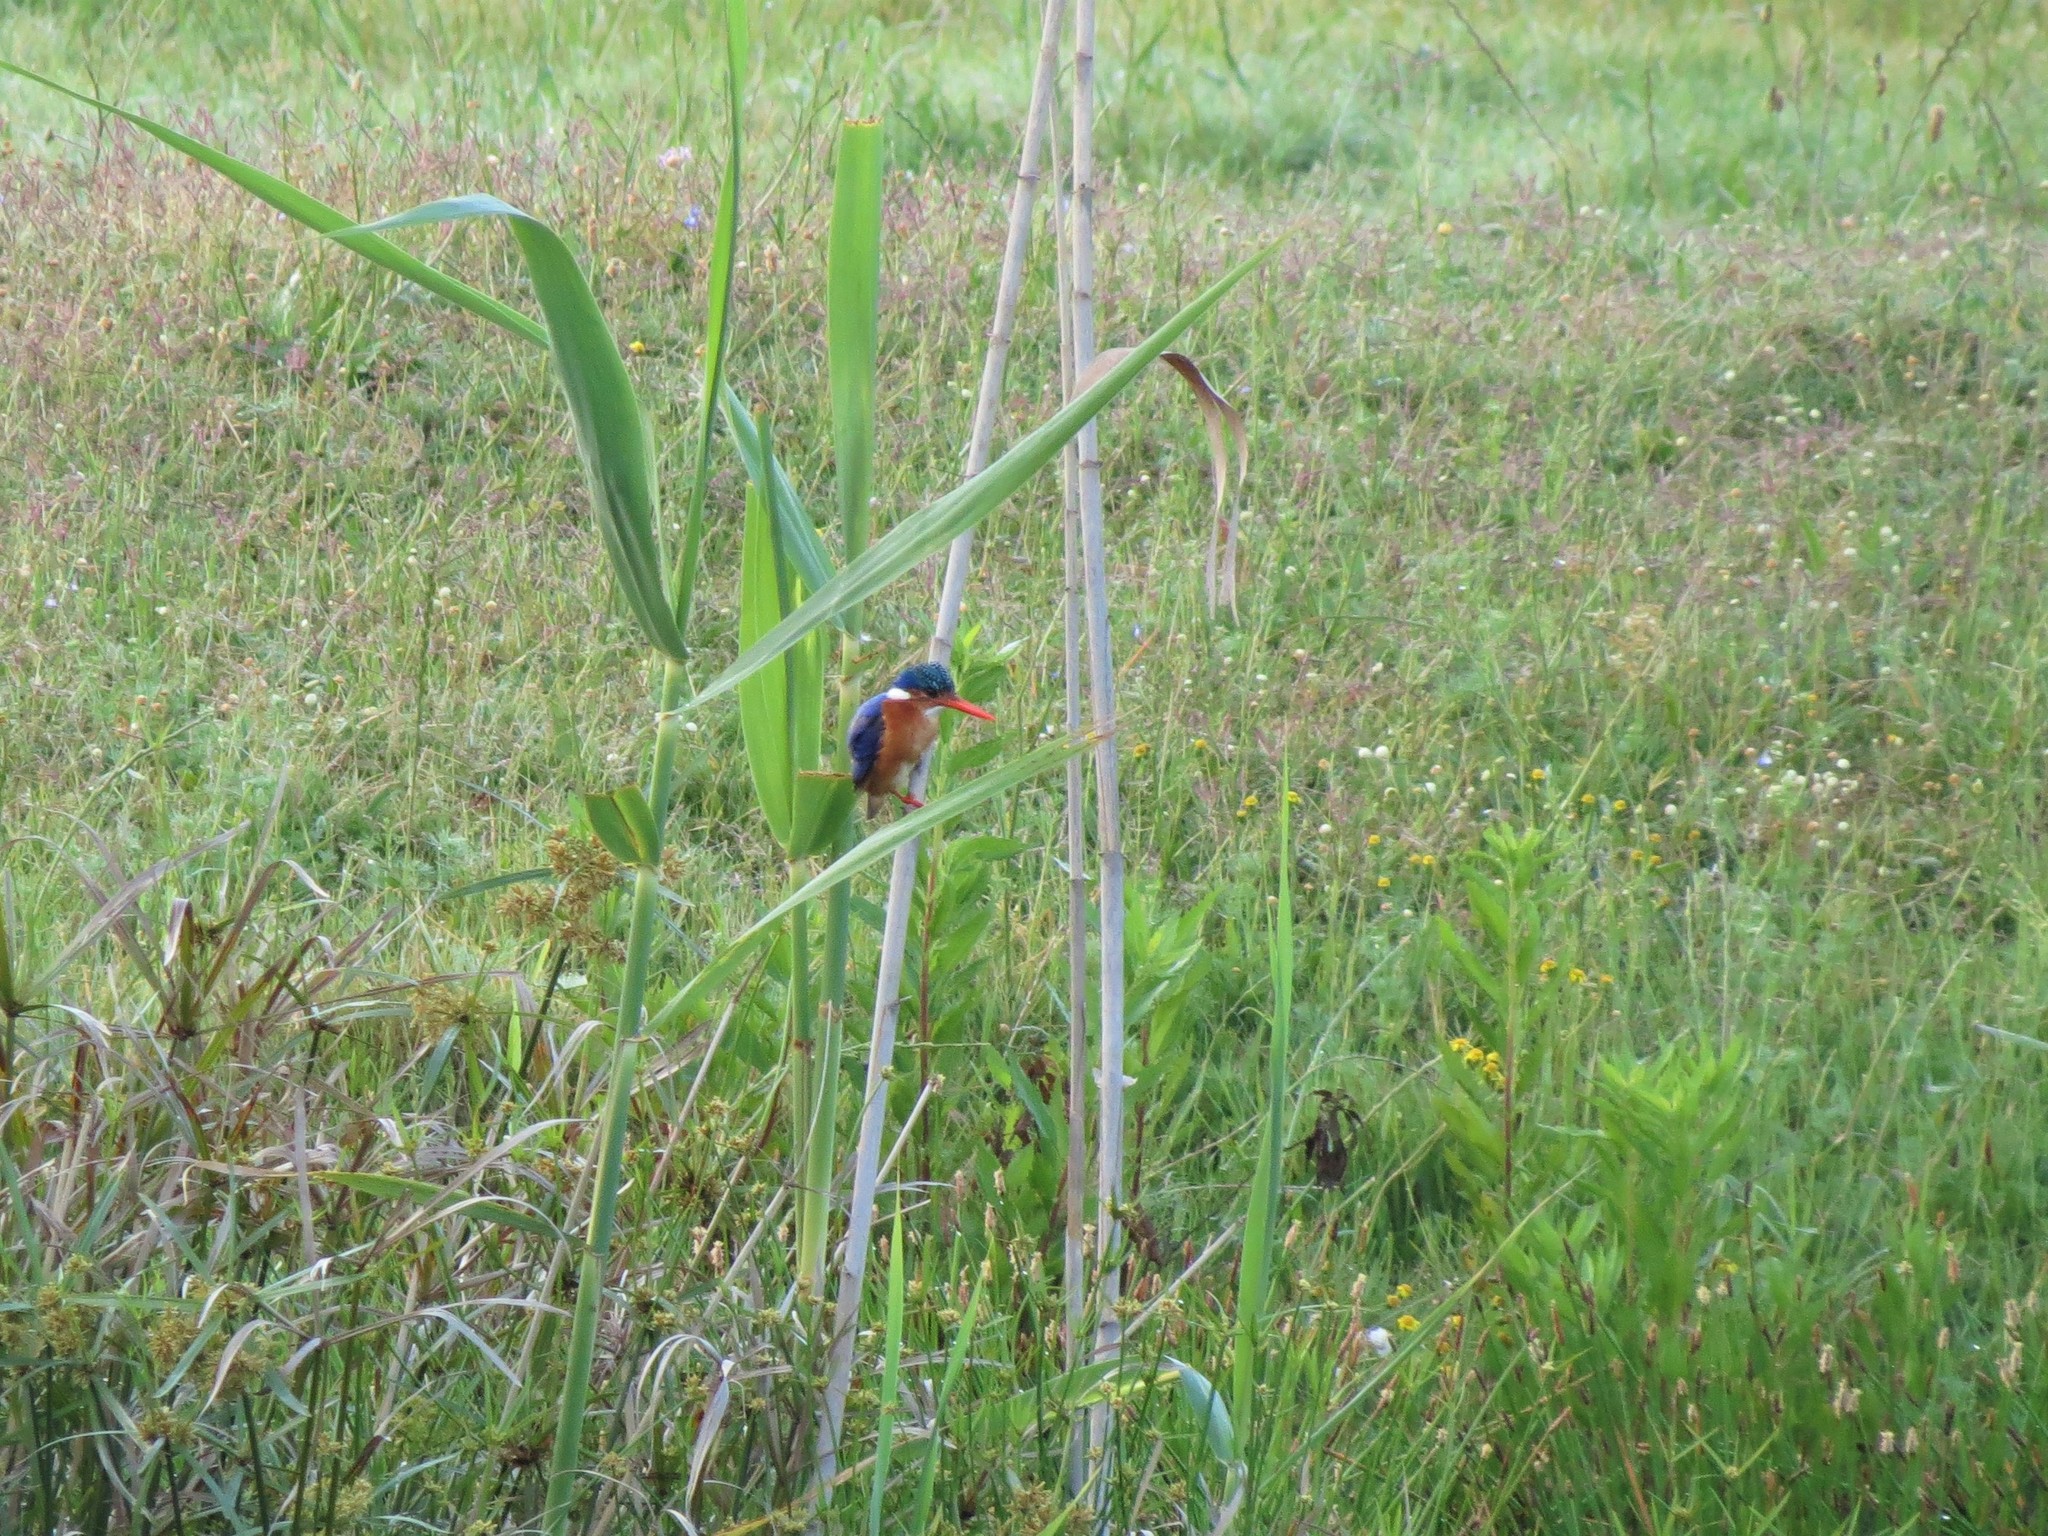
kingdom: Animalia
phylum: Chordata
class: Aves
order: Coraciiformes
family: Alcedinidae
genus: Corythornis
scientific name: Corythornis cristatus
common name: Malachite kingfisher
